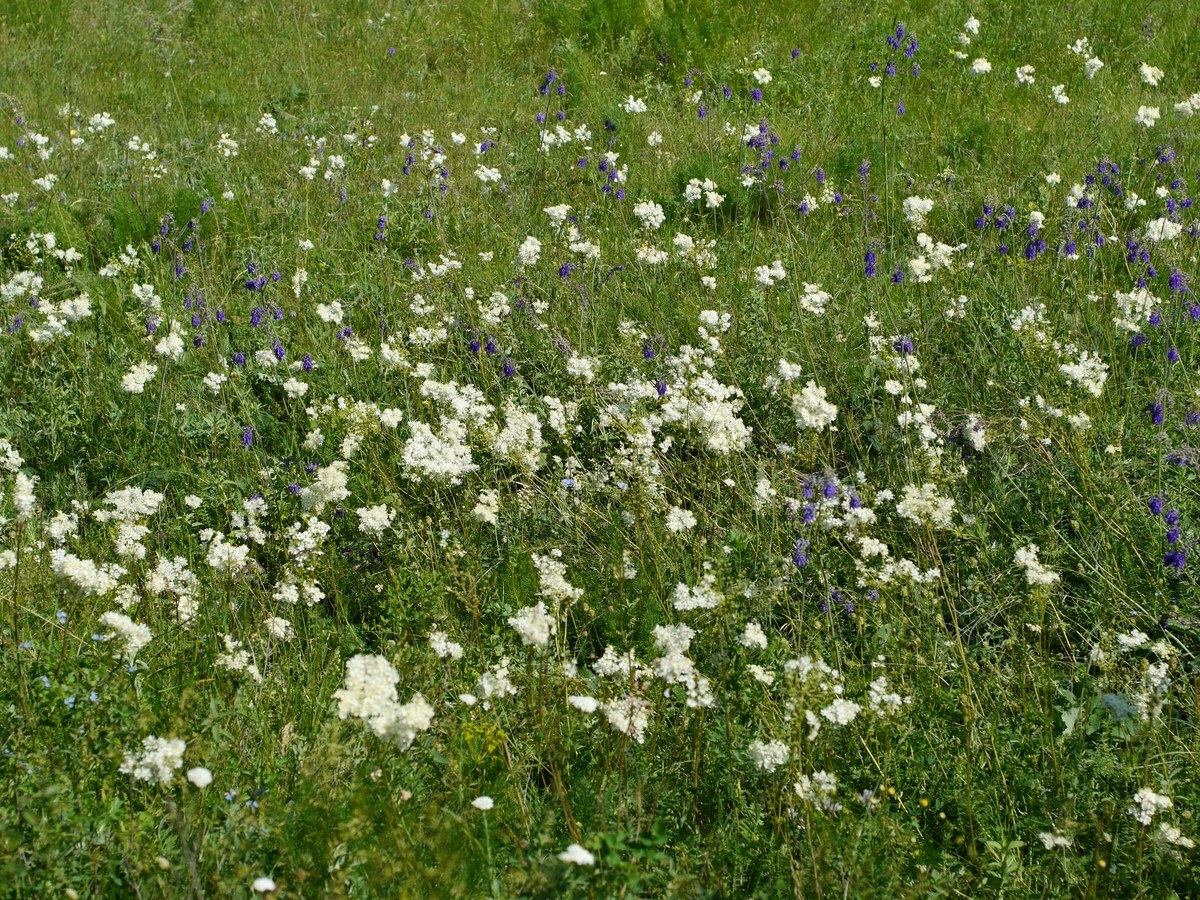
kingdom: Plantae
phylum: Tracheophyta
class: Magnoliopsida
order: Rosales
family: Rosaceae
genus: Filipendula
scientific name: Filipendula vulgaris
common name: Dropwort
